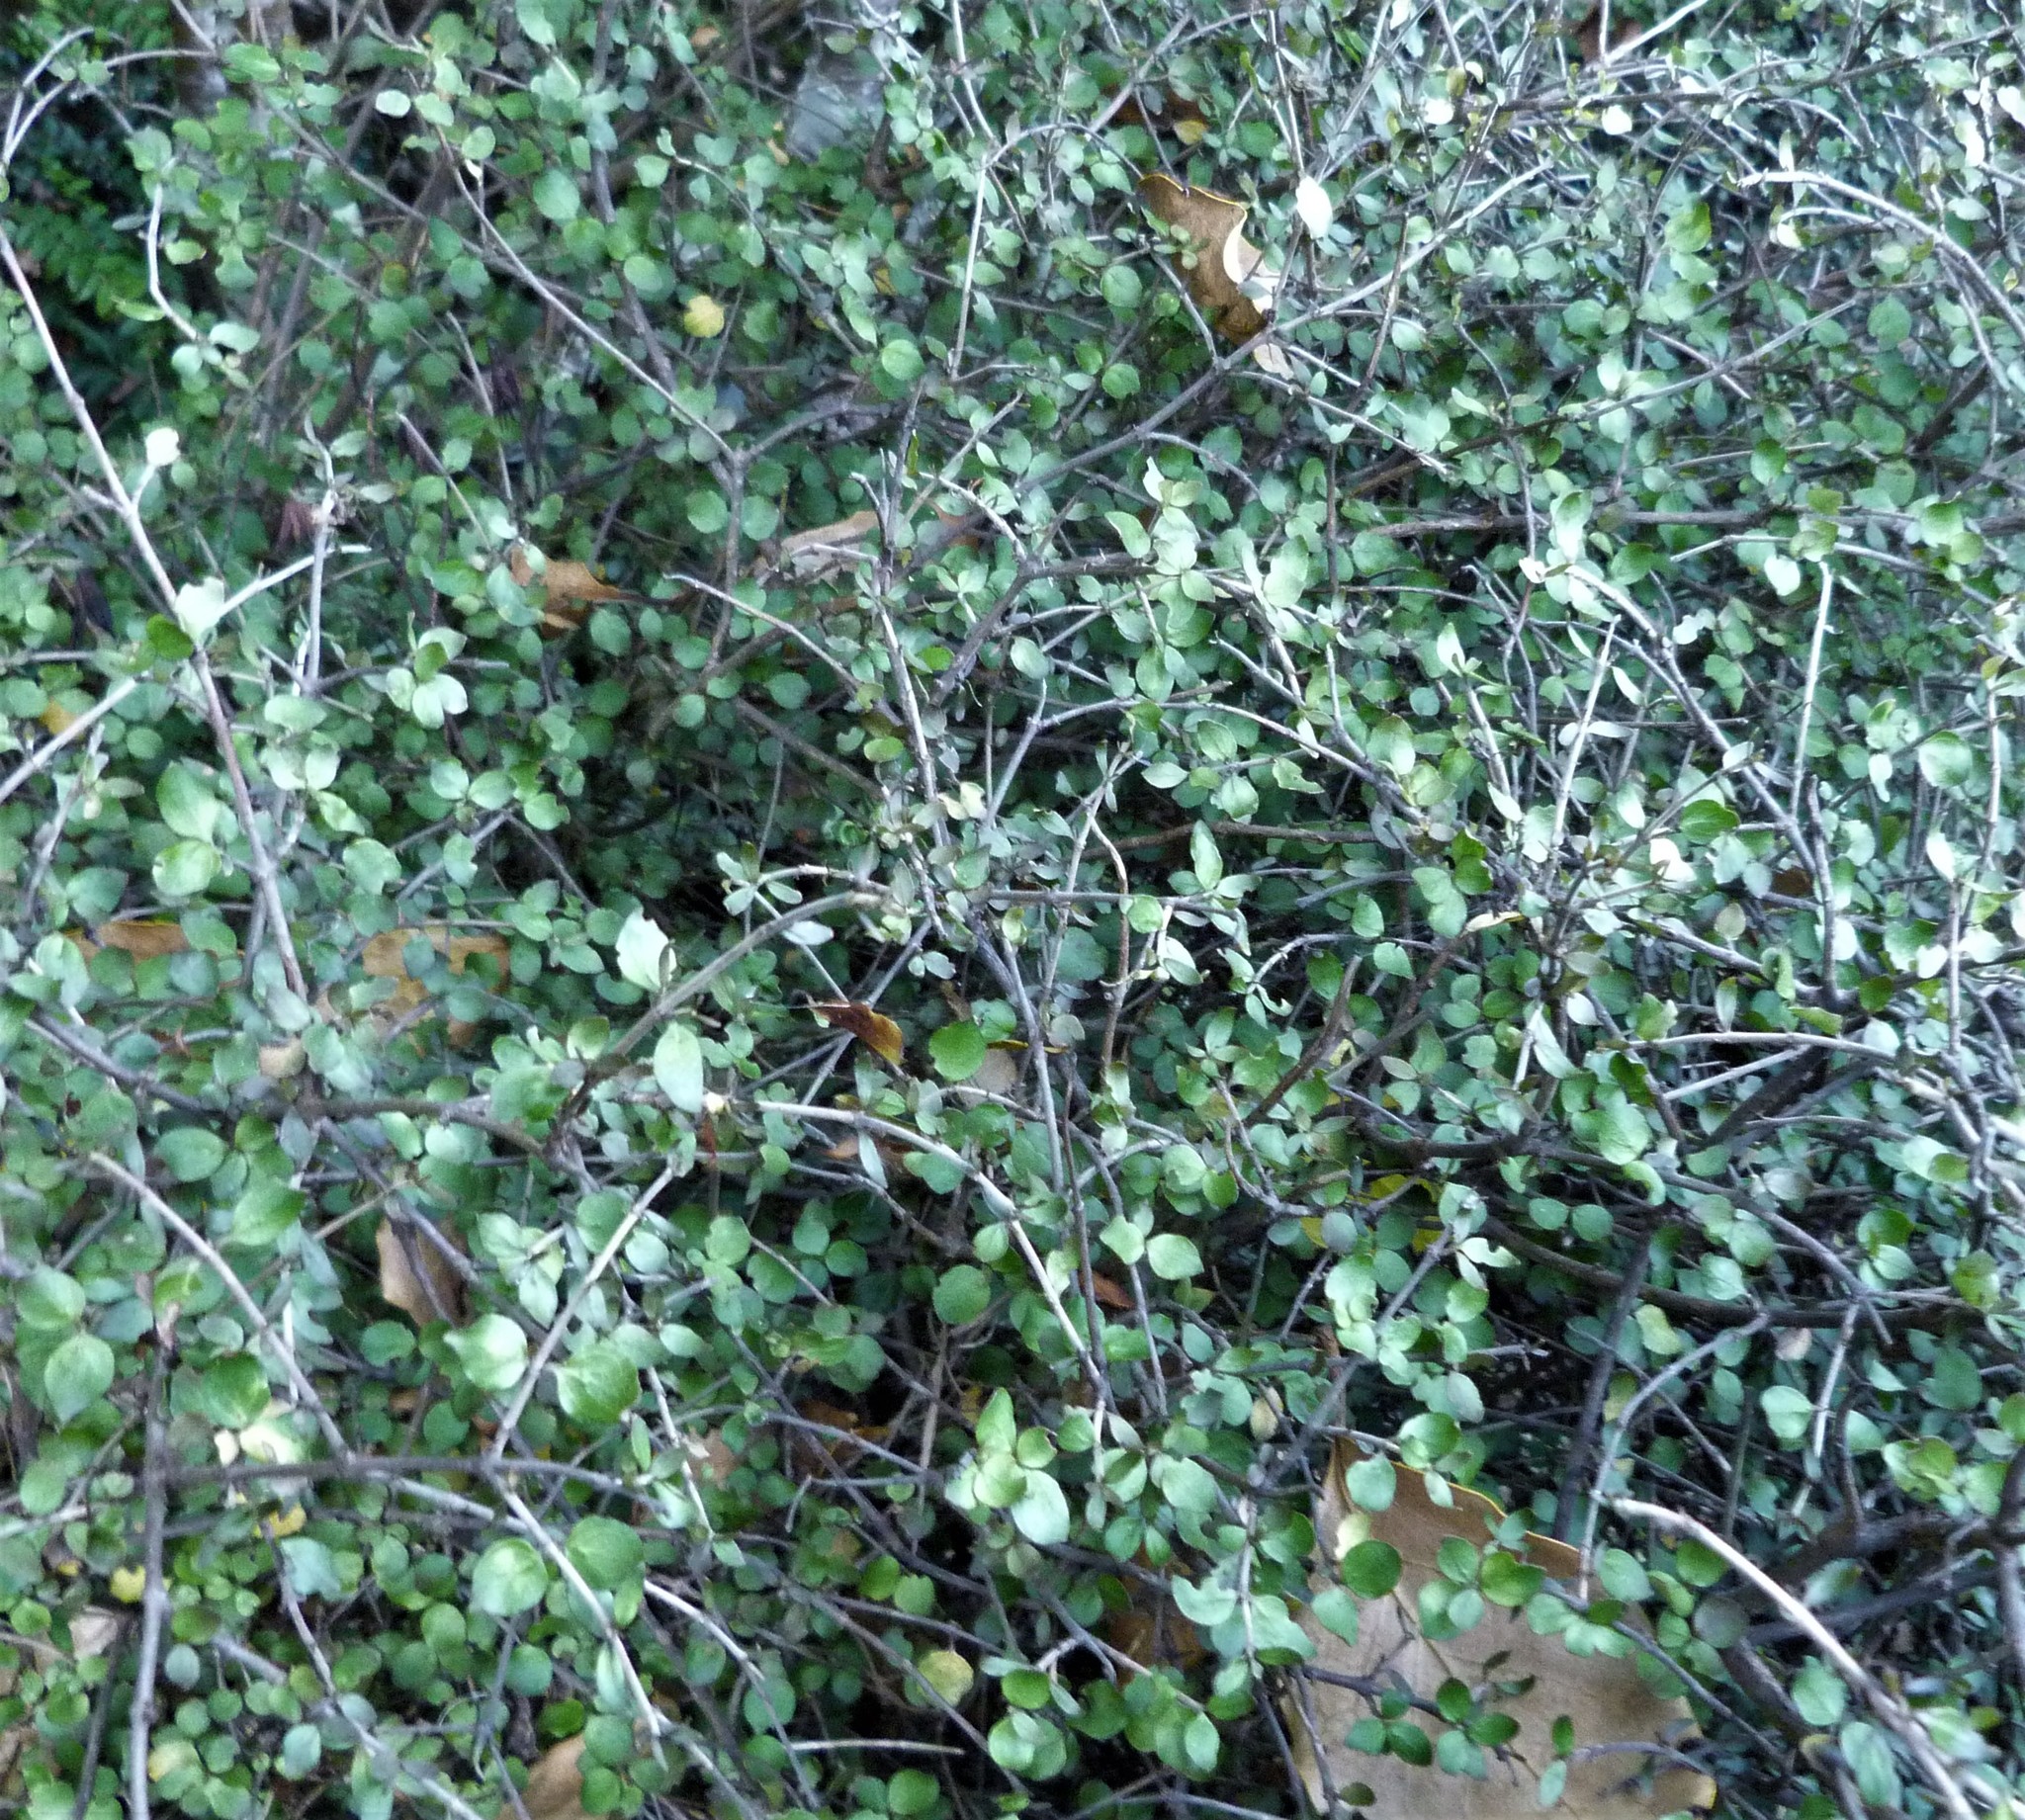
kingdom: Plantae
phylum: Tracheophyta
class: Magnoliopsida
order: Gentianales
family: Rubiaceae
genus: Coprosma
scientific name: Coprosma rhamnoides
